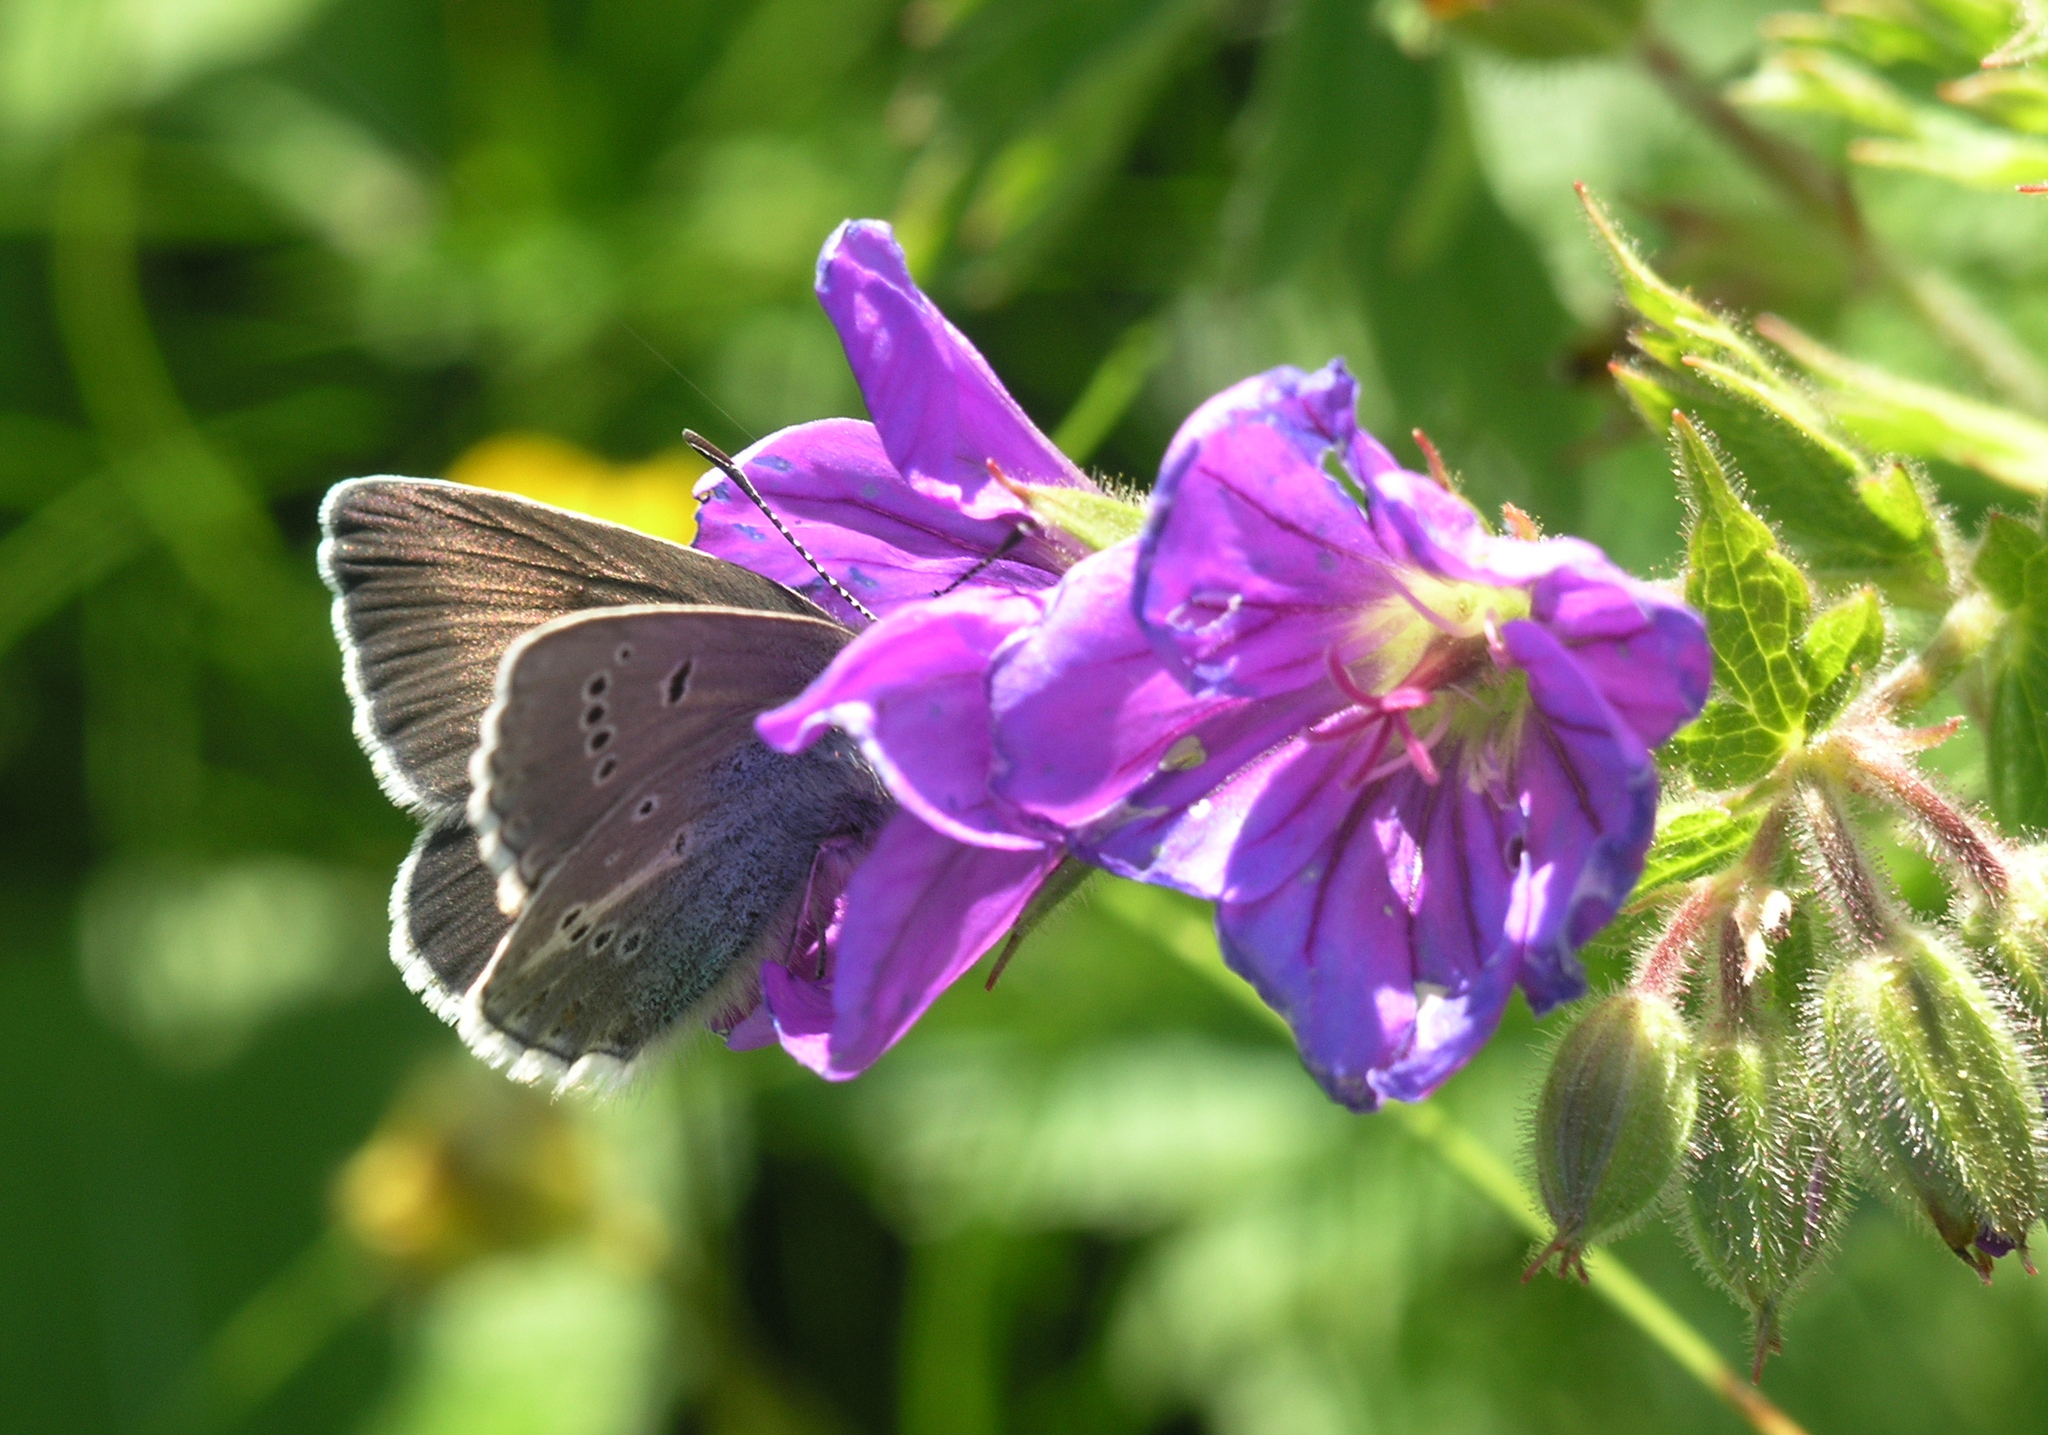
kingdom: Animalia
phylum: Arthropoda
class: Insecta
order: Lepidoptera
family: Lycaenidae
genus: Eumedonia
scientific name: Eumedonia eumedon
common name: Geranium argus
